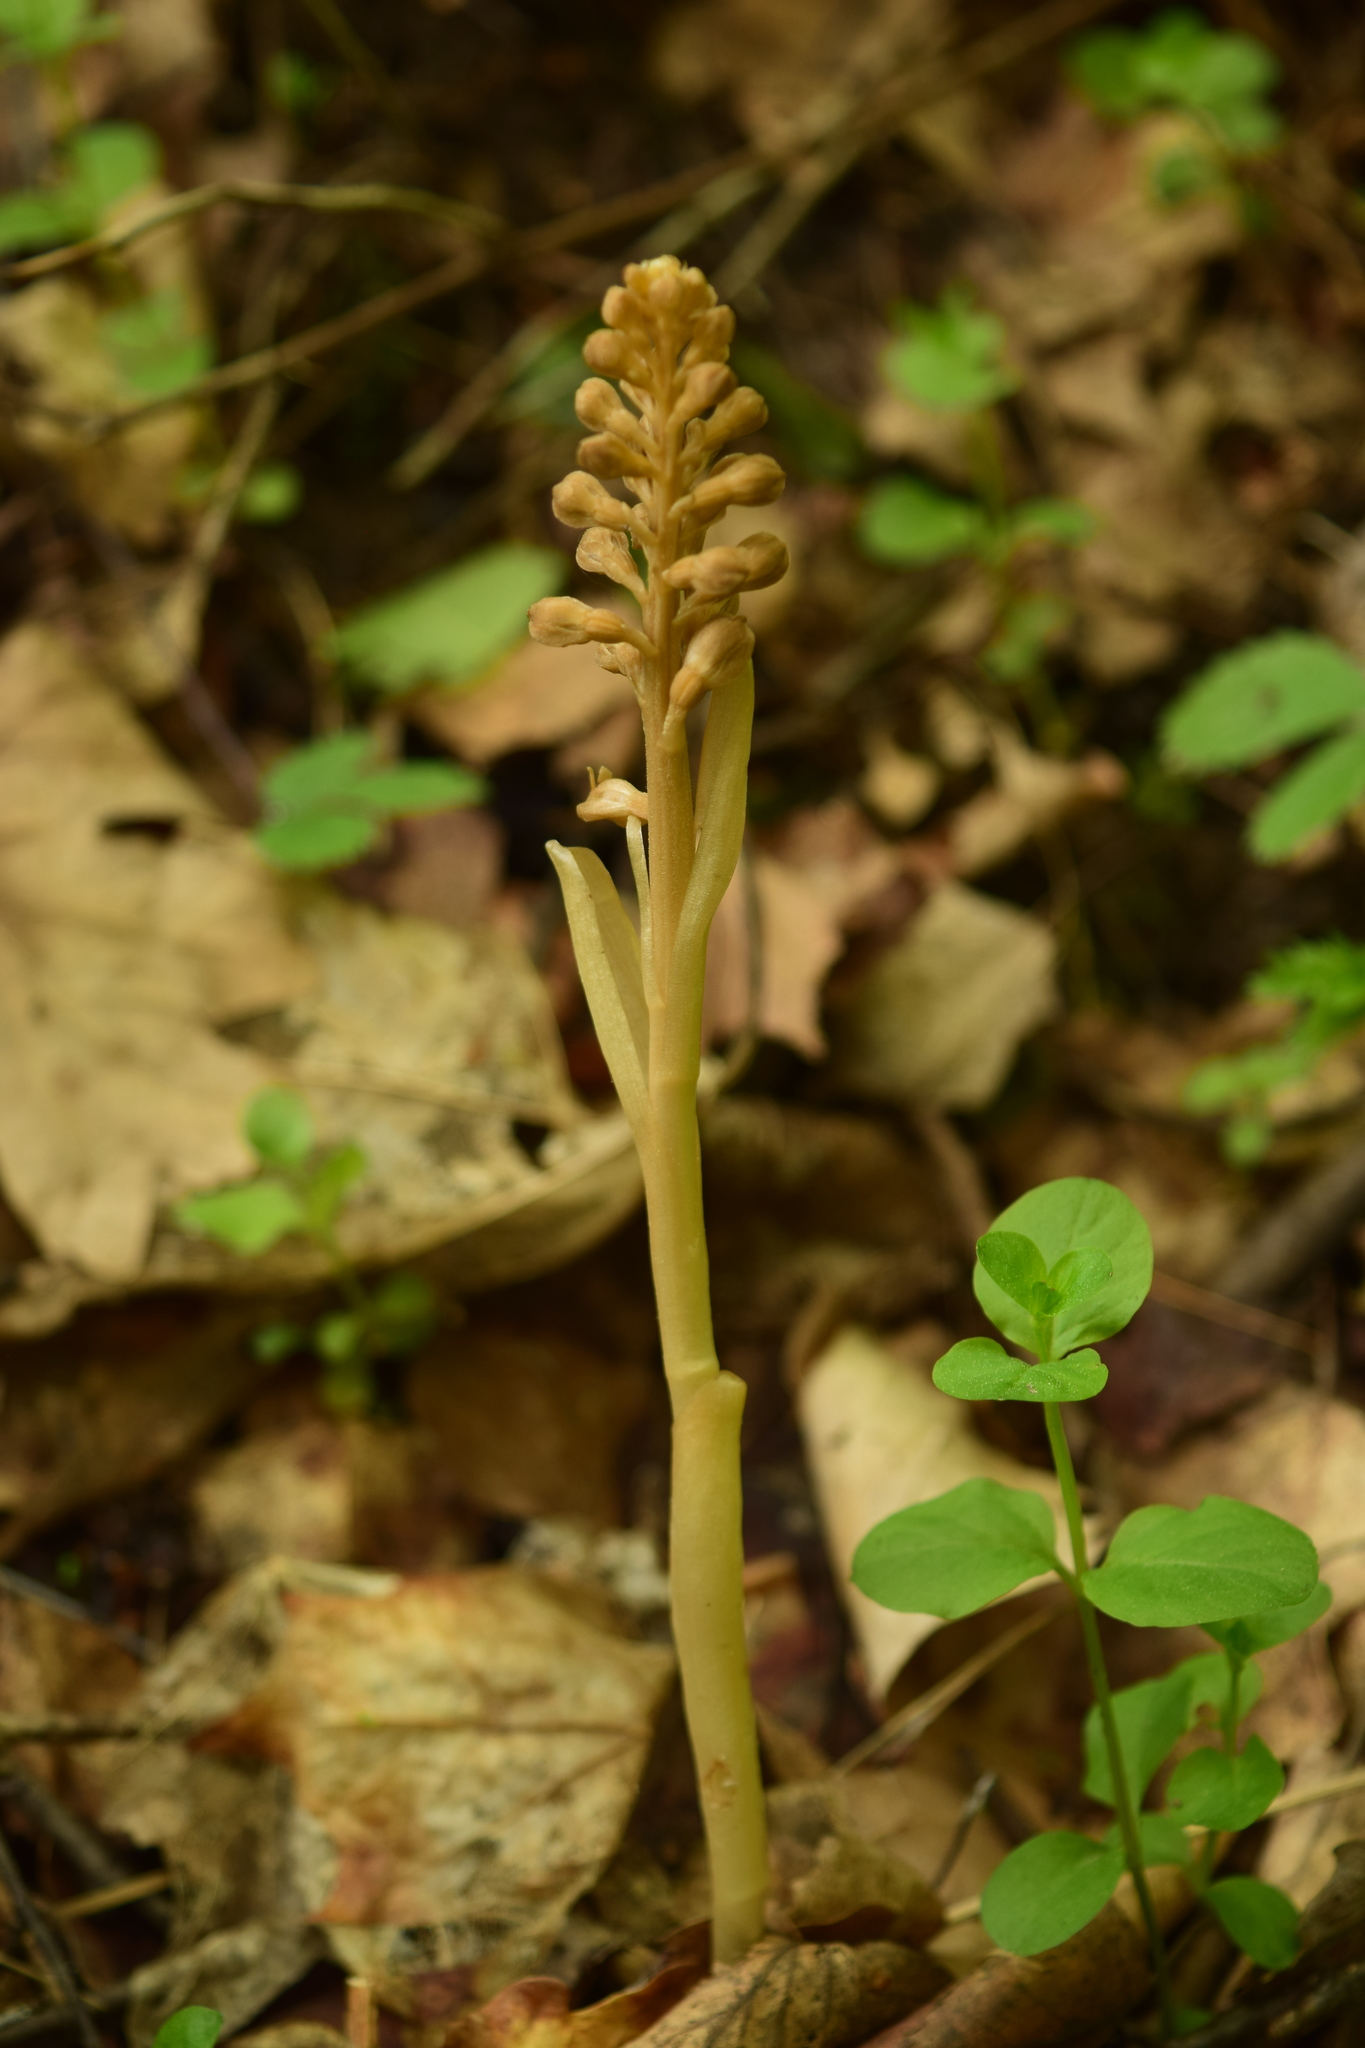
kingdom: Plantae
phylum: Tracheophyta
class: Liliopsida
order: Asparagales
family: Orchidaceae
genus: Neottia
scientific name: Neottia nidus-avis
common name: Bird's-nest orchid
